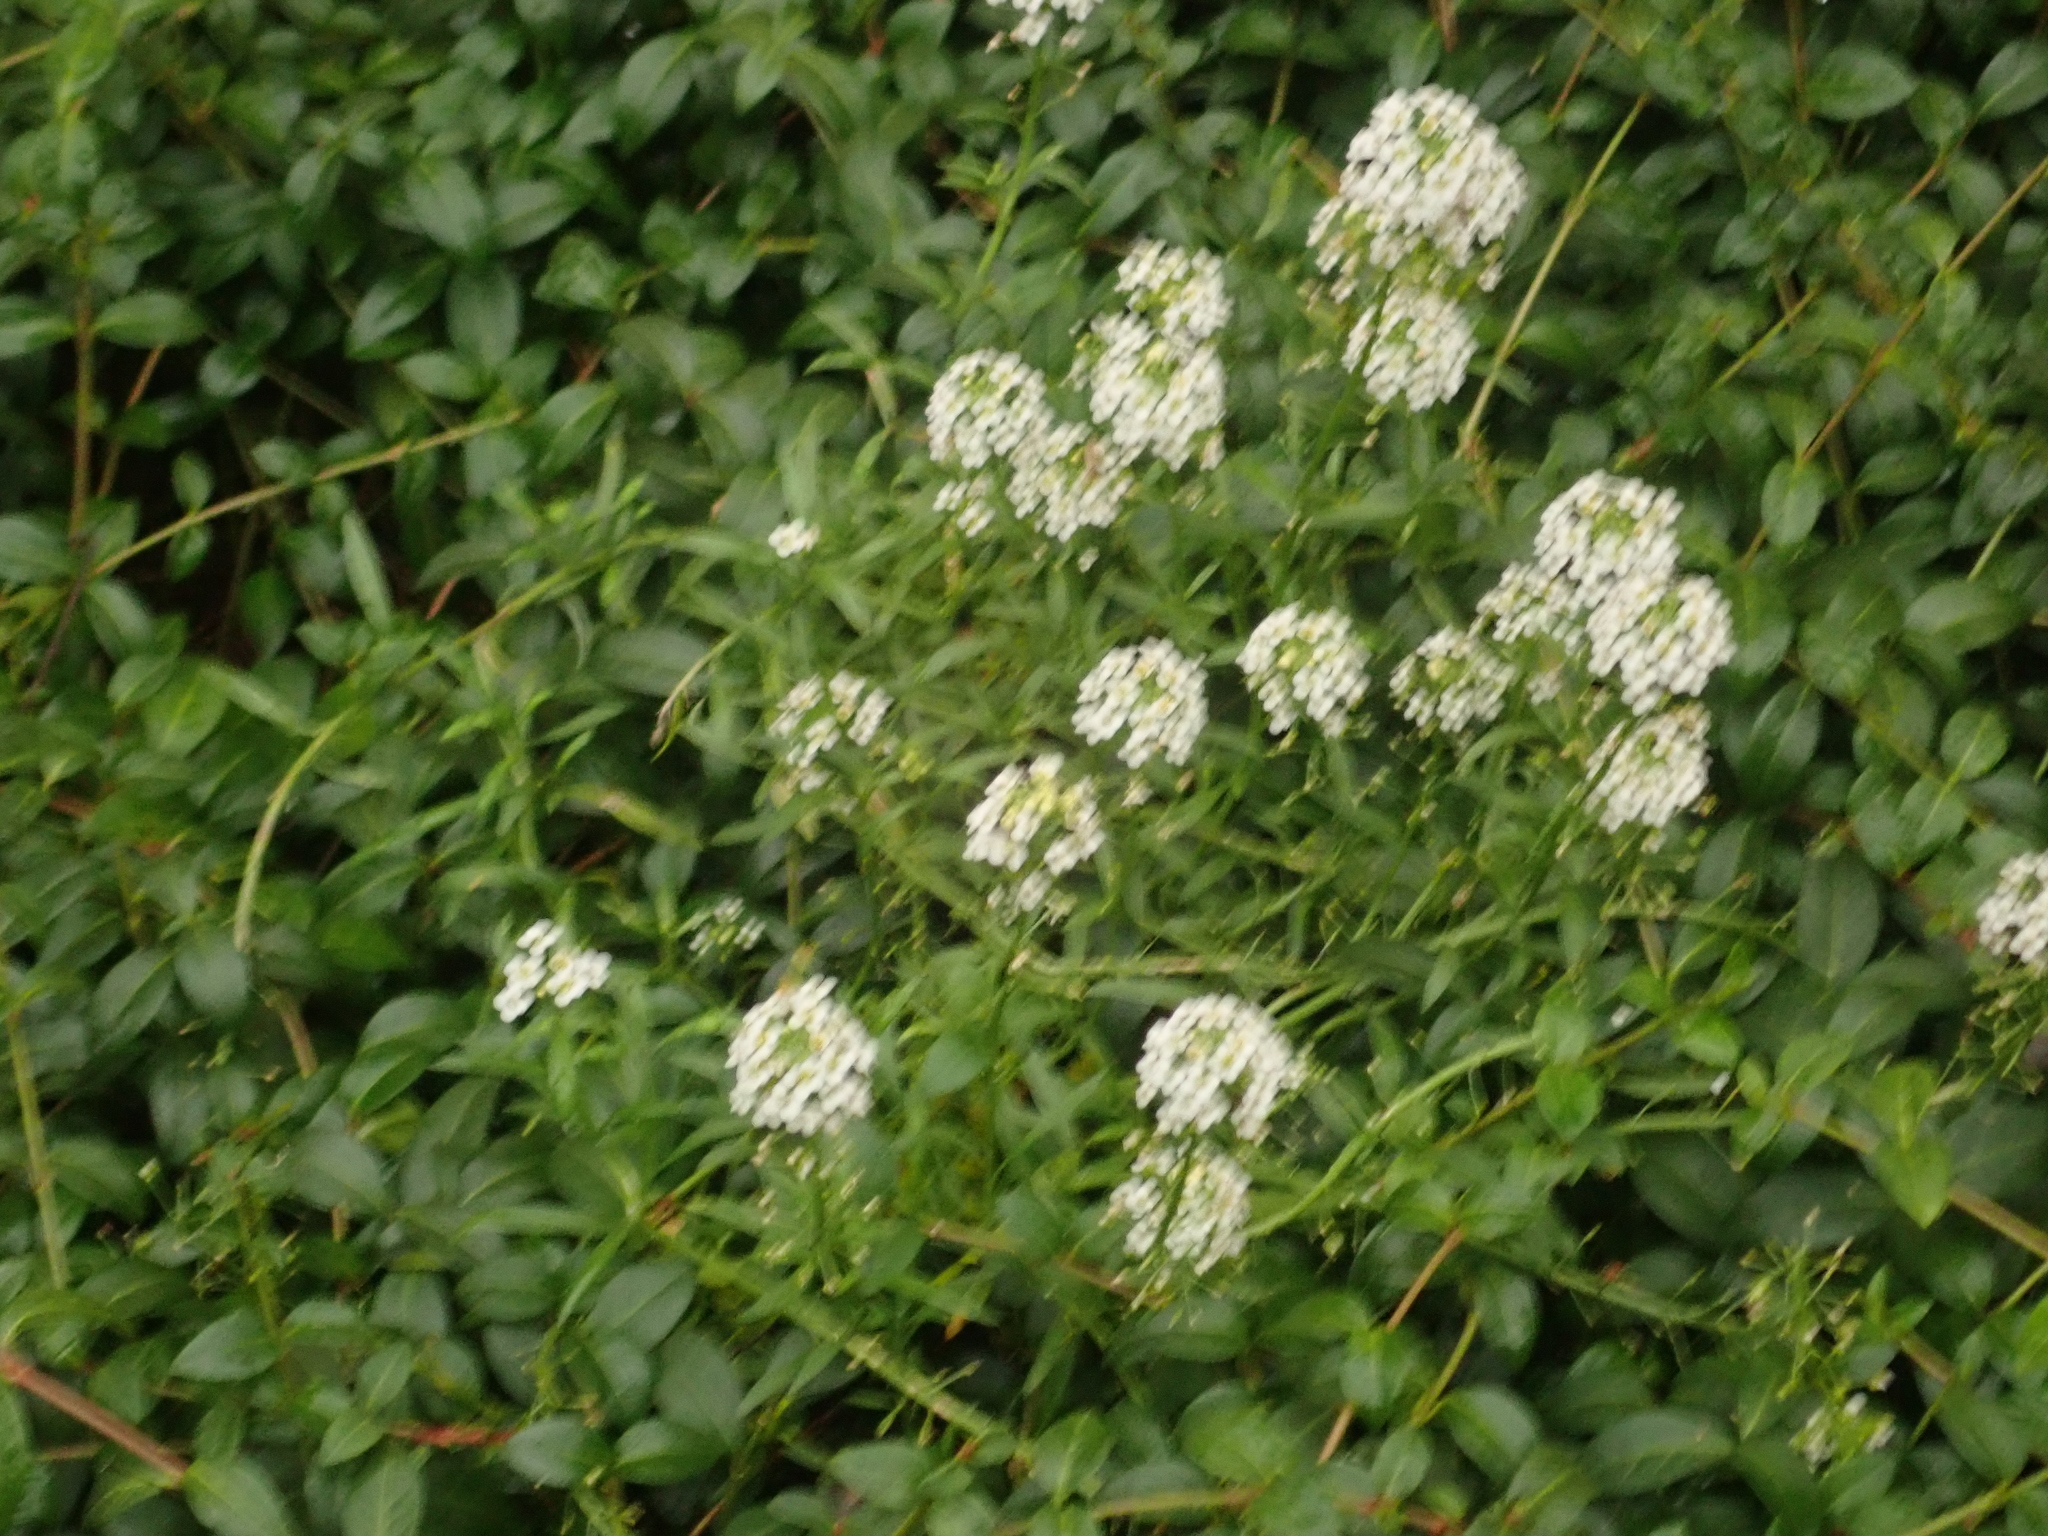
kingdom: Plantae
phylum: Tracheophyta
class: Magnoliopsida
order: Brassicales
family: Brassicaceae
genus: Lobularia
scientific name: Lobularia maritima
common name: Sweet alison
